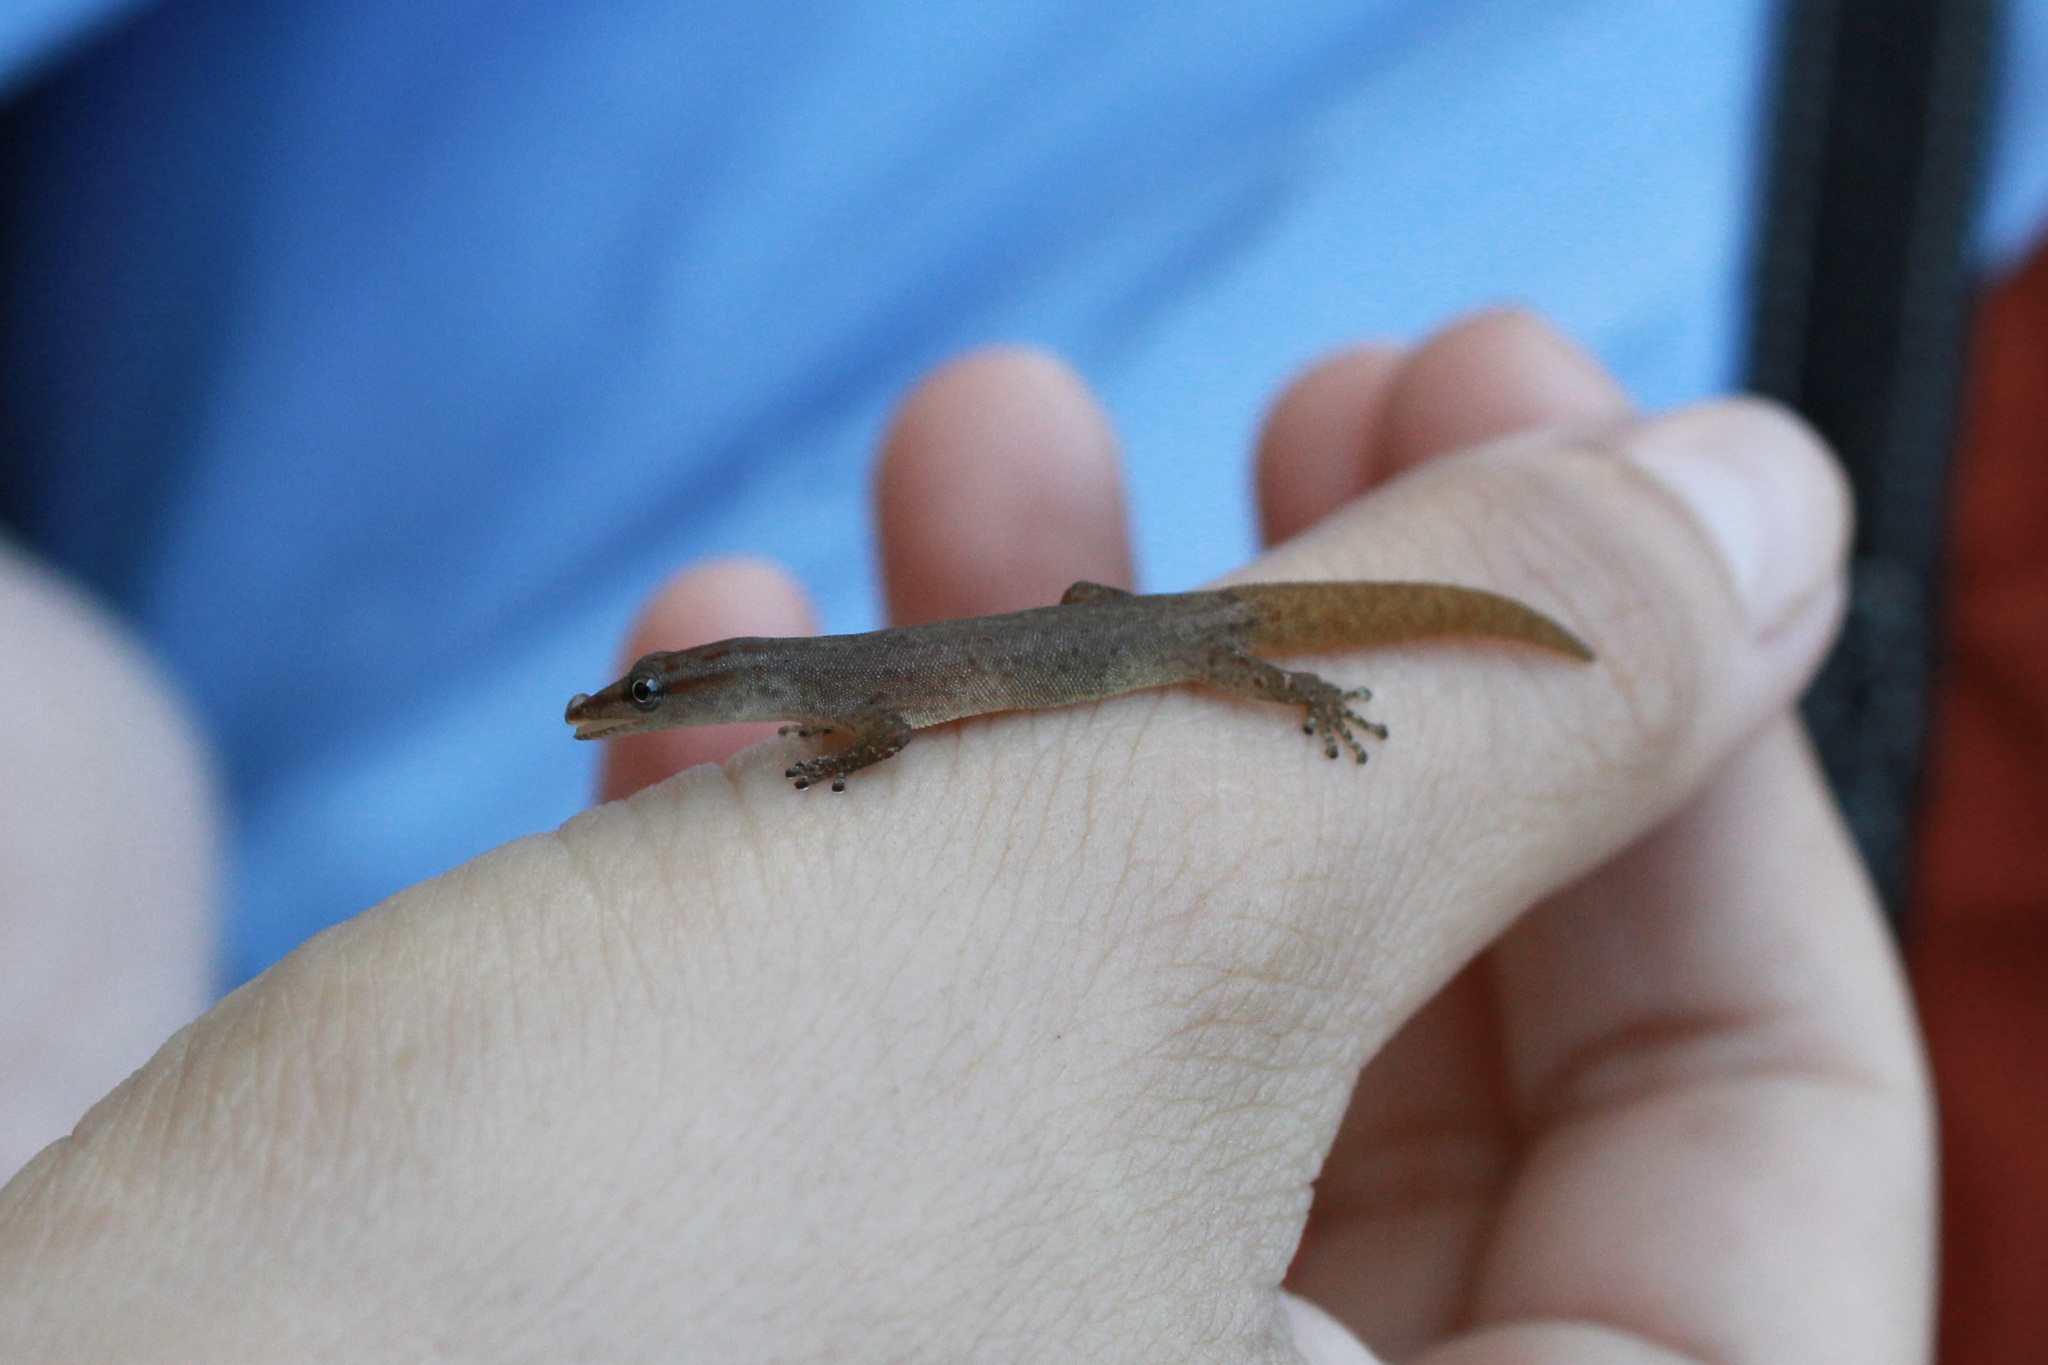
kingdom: Animalia
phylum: Chordata
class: Squamata
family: Sphaerodactylidae
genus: Sphaerodactylus
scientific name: Sphaerodactylus molei
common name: Tobago least gecko
